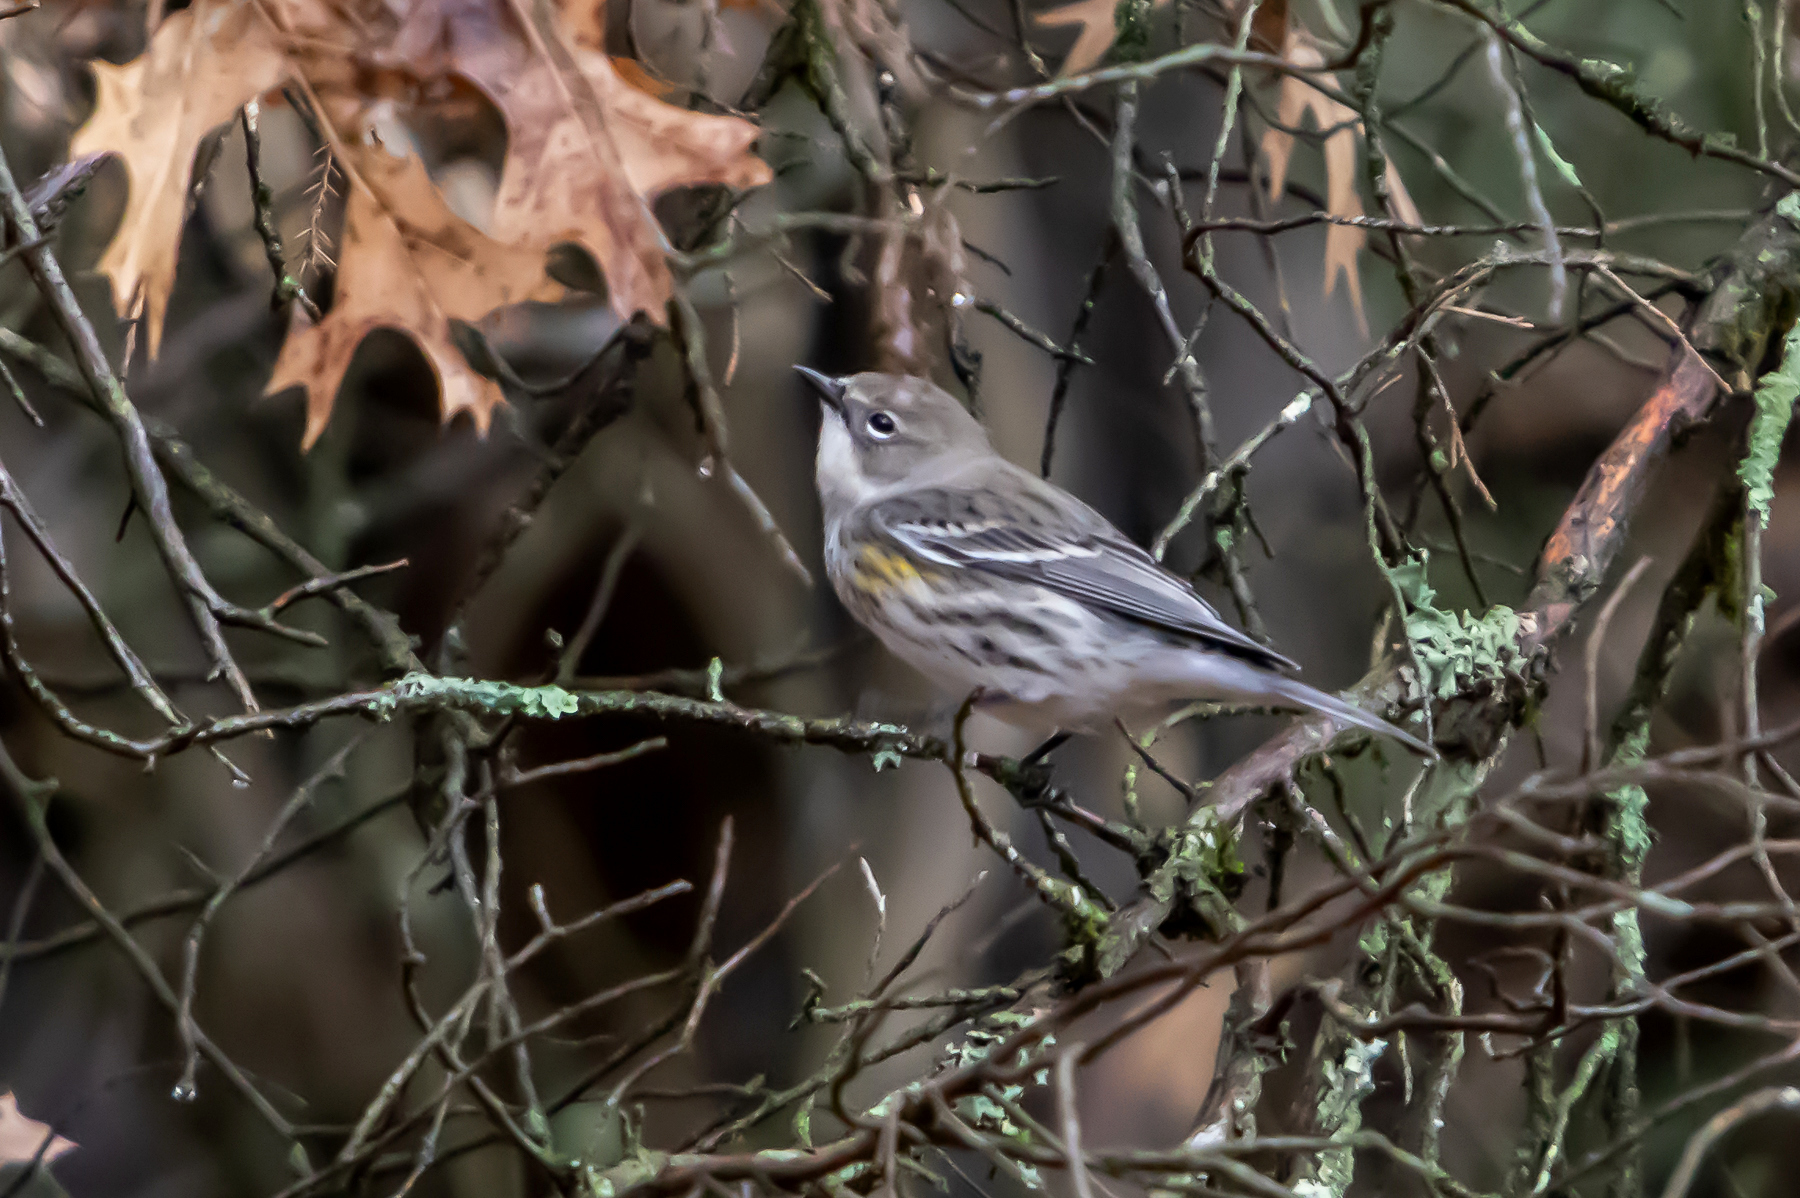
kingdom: Animalia
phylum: Chordata
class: Aves
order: Passeriformes
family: Parulidae
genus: Setophaga
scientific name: Setophaga coronata
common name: Myrtle warbler
